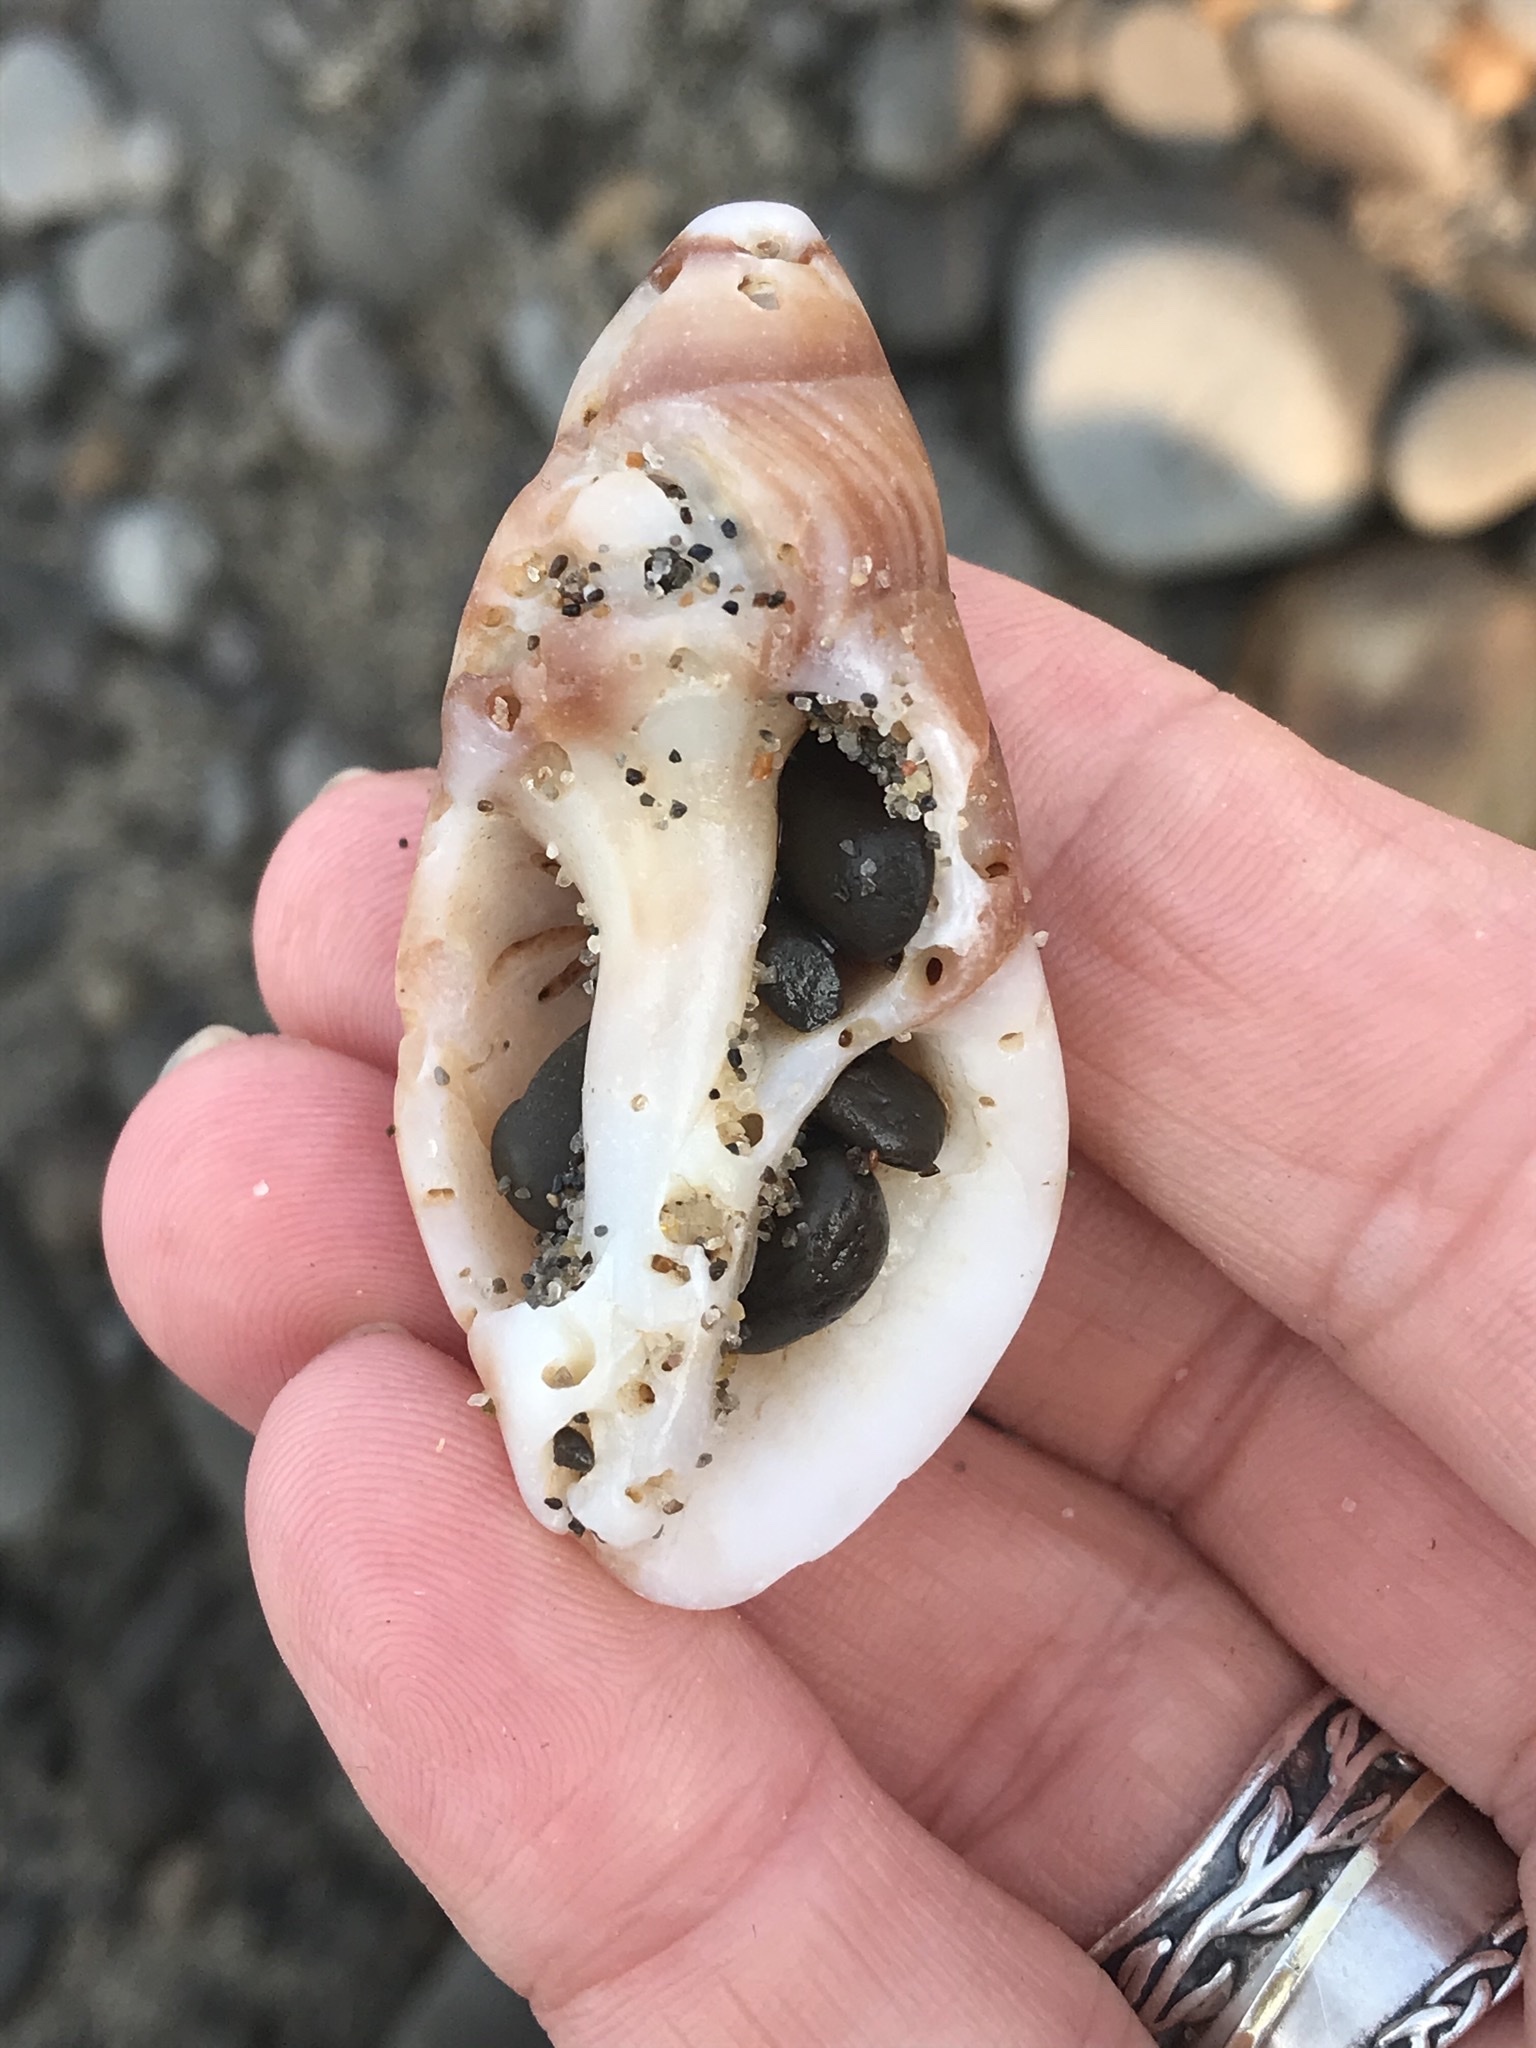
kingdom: Animalia
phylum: Mollusca
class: Gastropoda
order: Neogastropoda
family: Muricidae
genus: Nucella
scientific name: Nucella lamellosa
